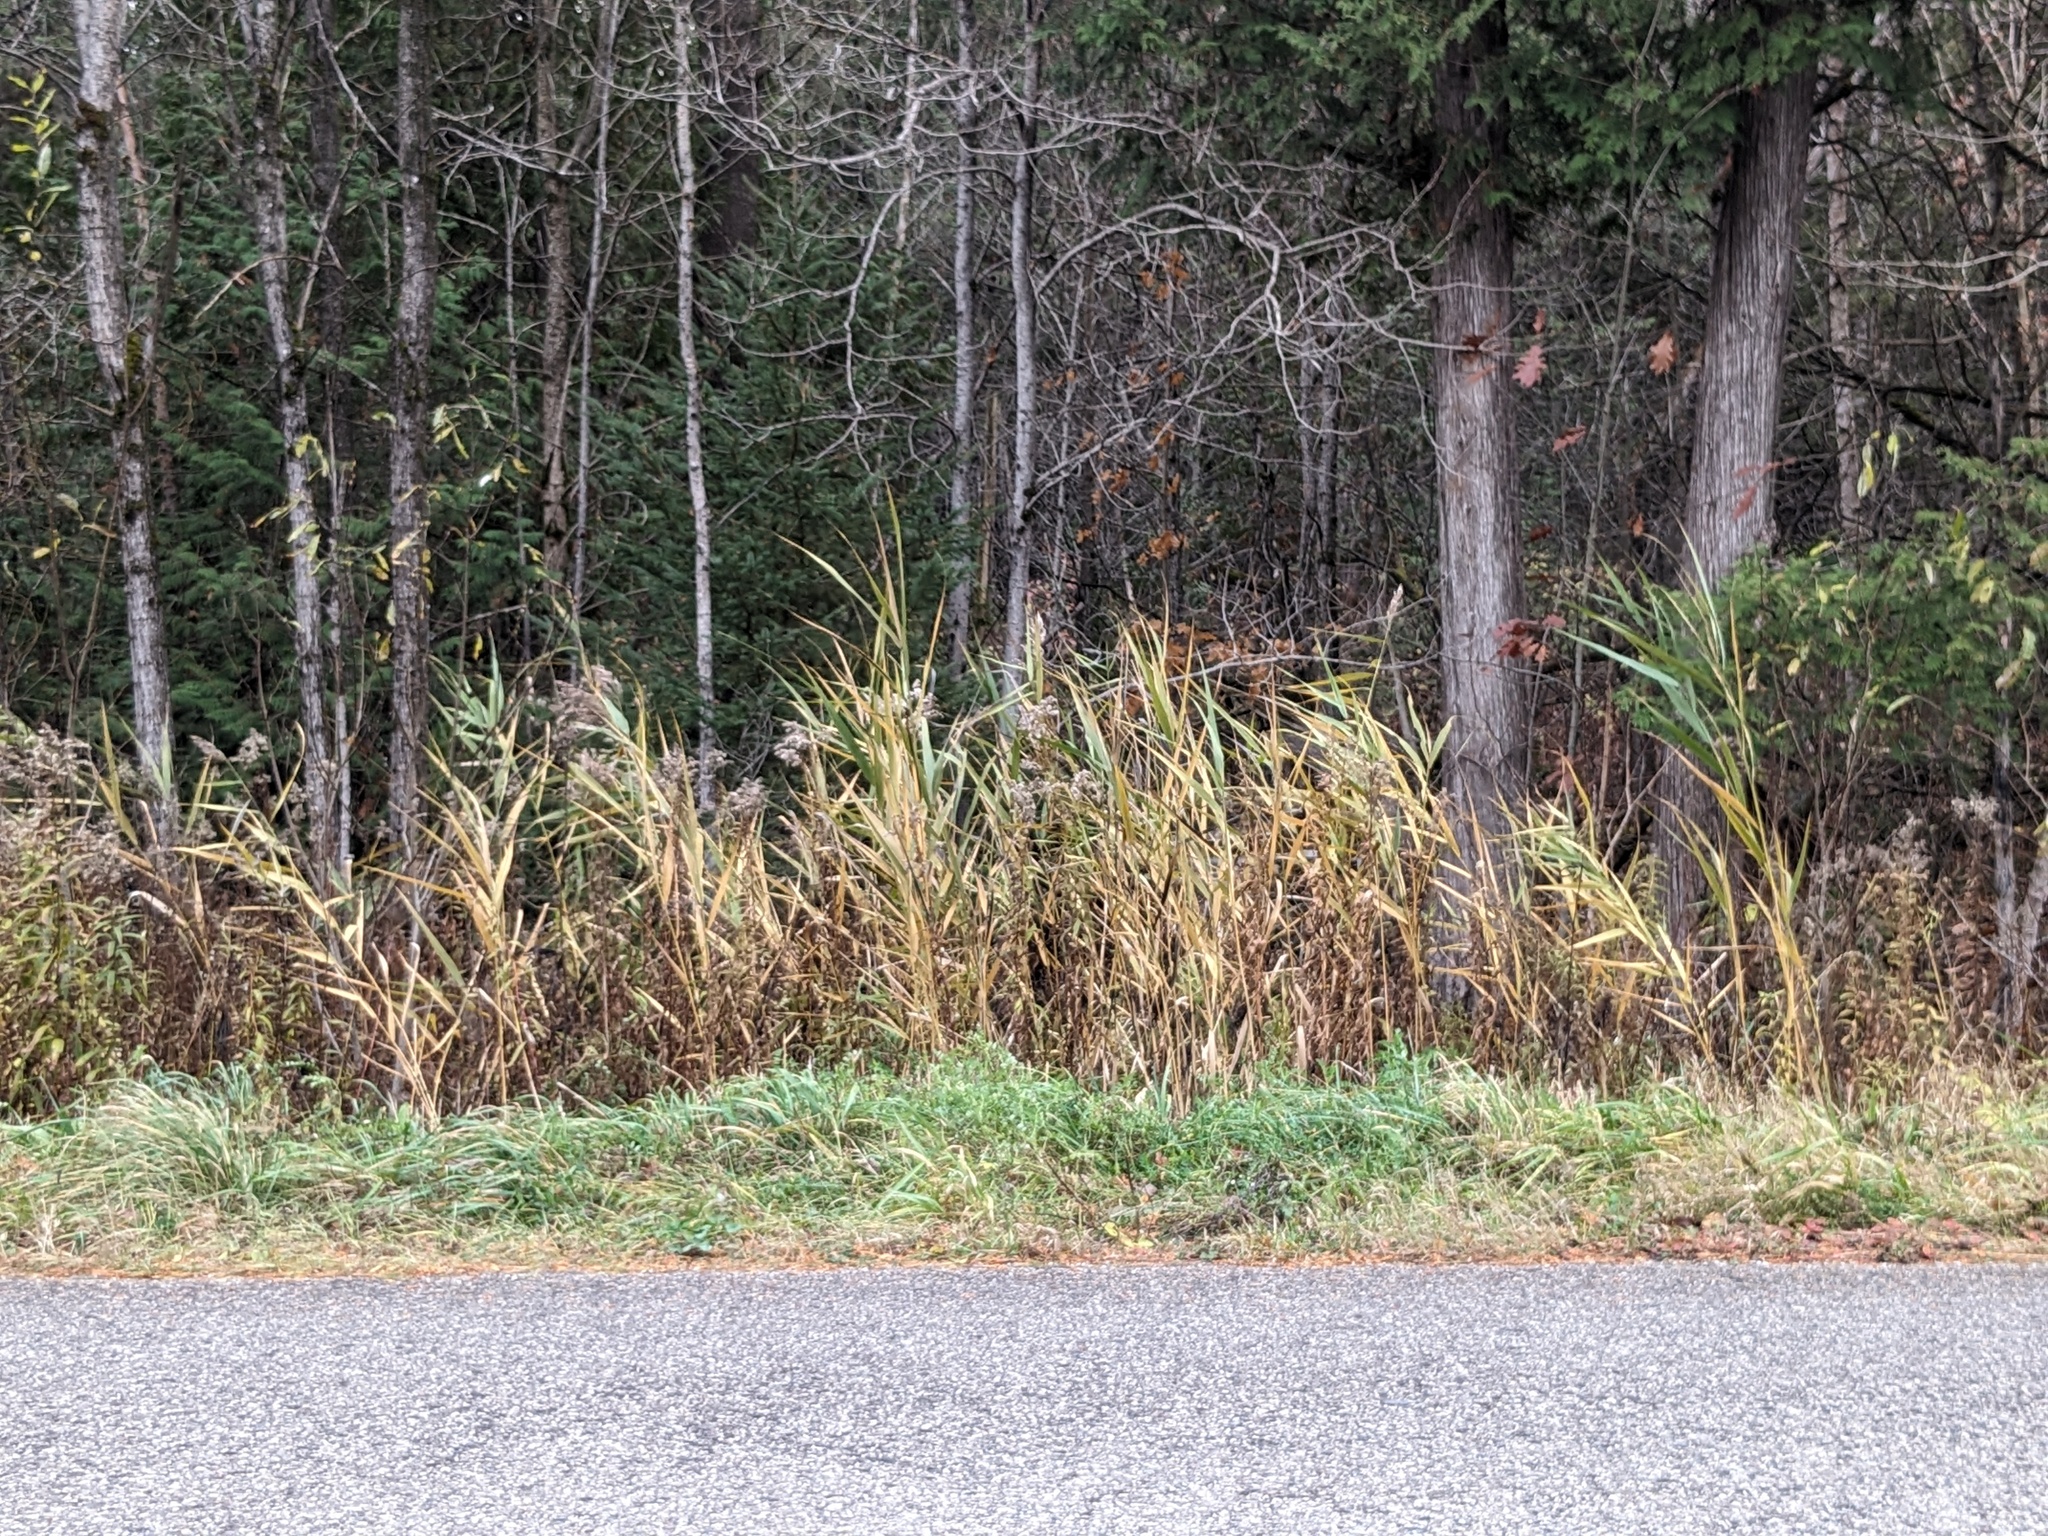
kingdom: Plantae
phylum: Tracheophyta
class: Liliopsida
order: Poales
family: Poaceae
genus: Phragmites
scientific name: Phragmites australis
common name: Common reed
